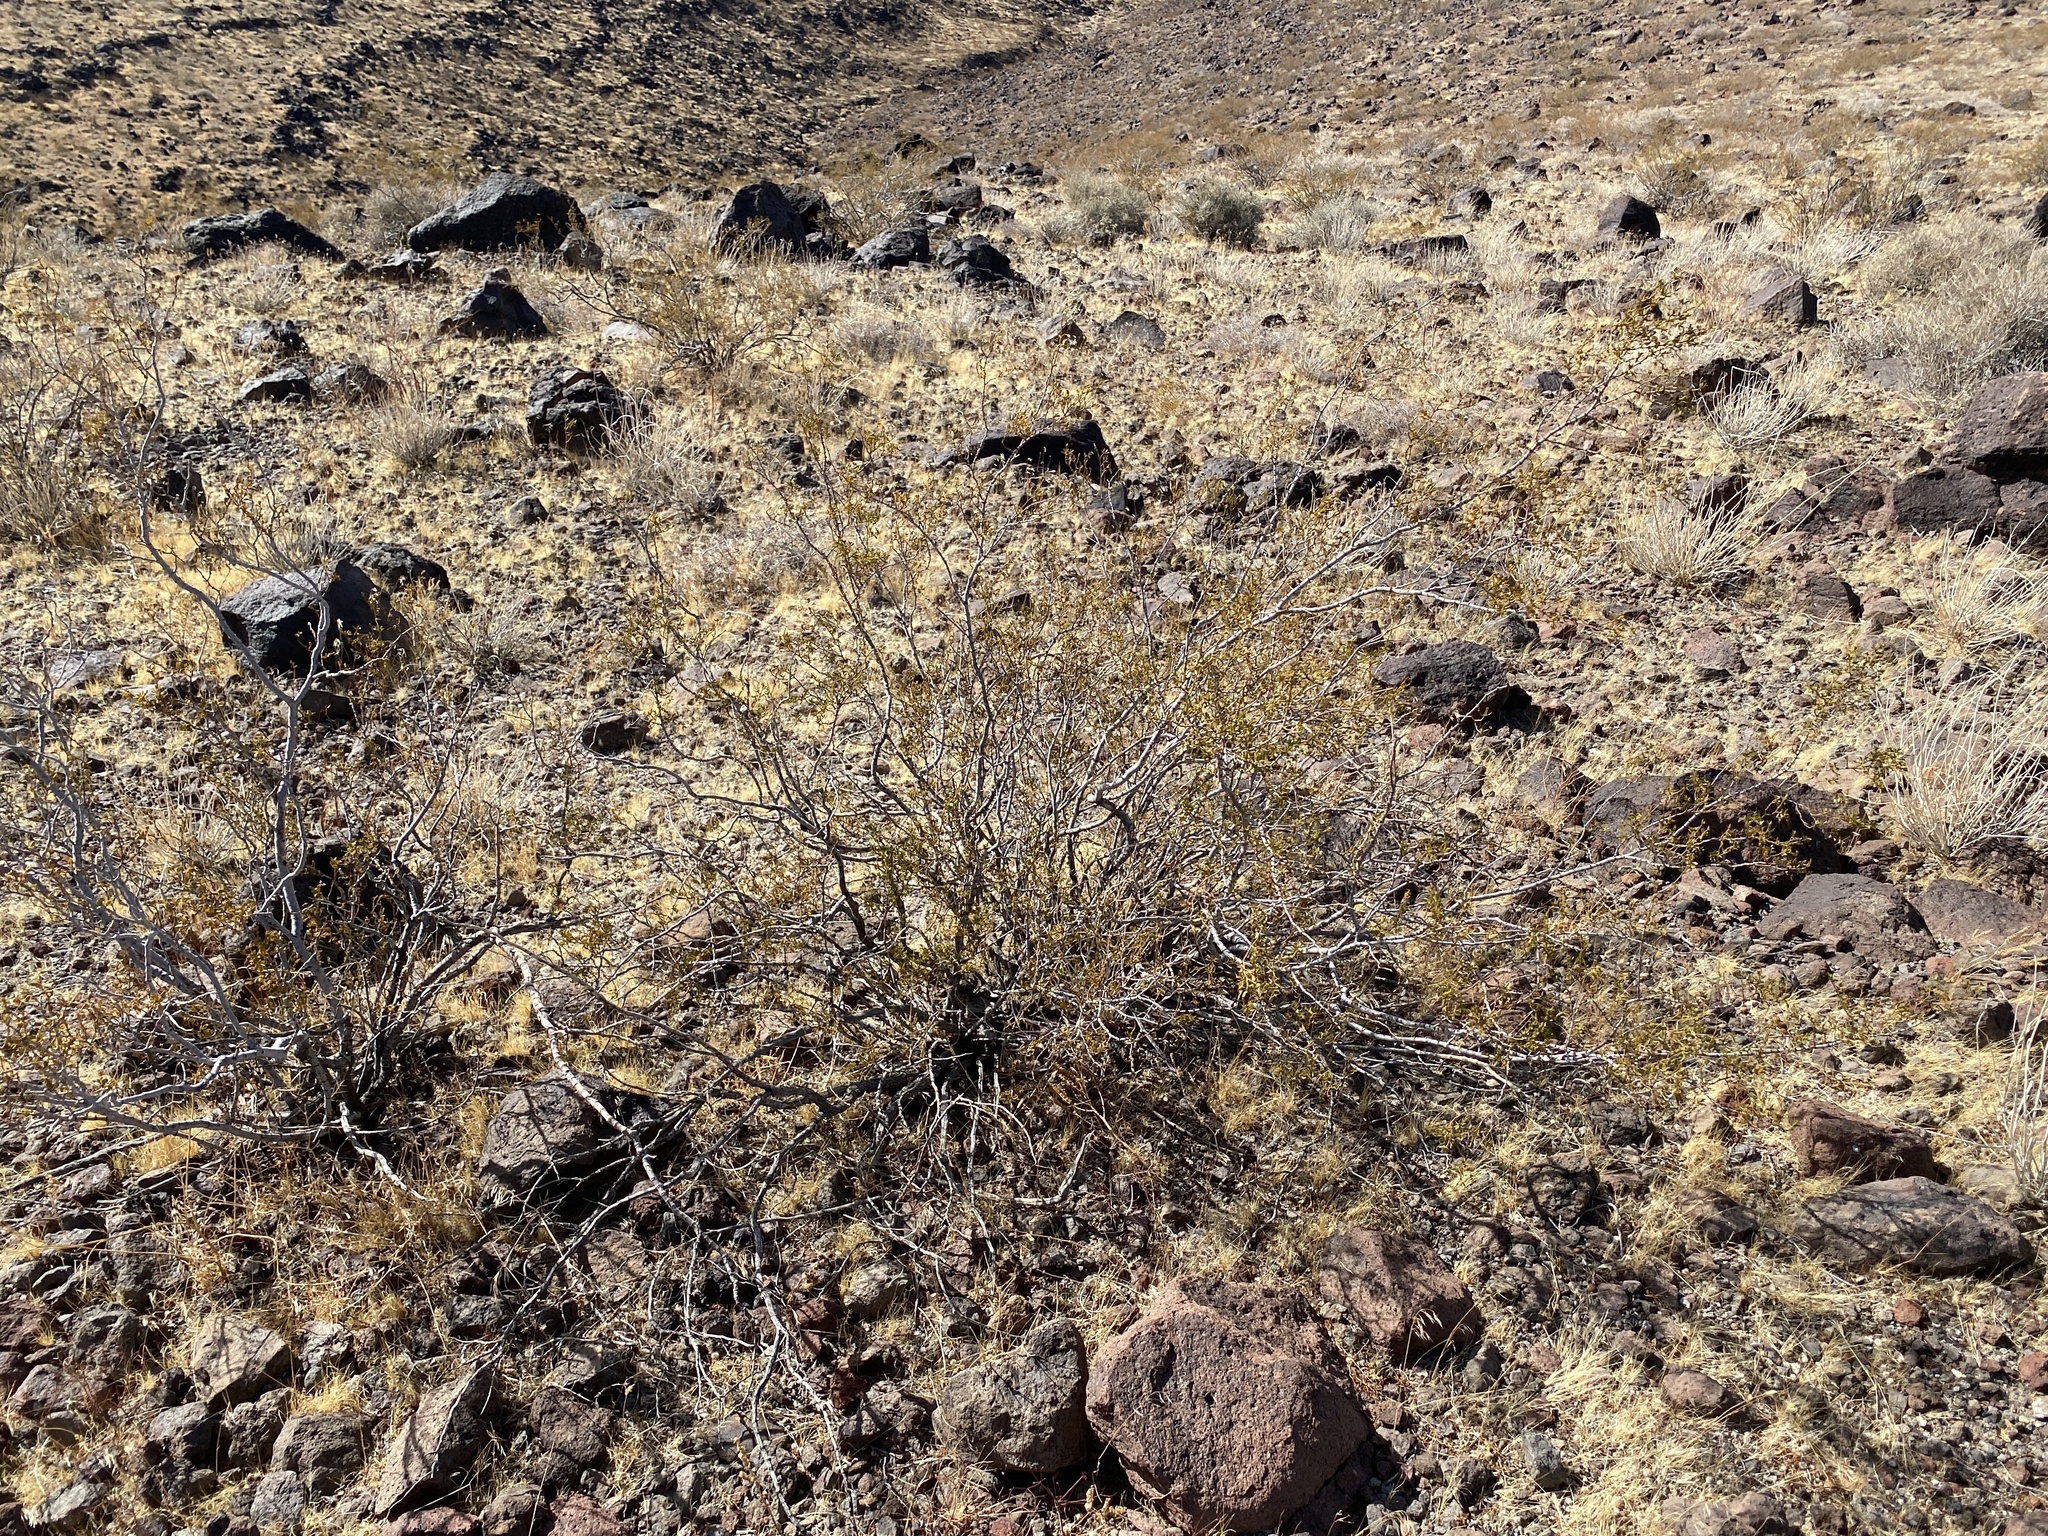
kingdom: Plantae
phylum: Tracheophyta
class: Magnoliopsida
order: Zygophyllales
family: Zygophyllaceae
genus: Larrea
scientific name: Larrea tridentata
